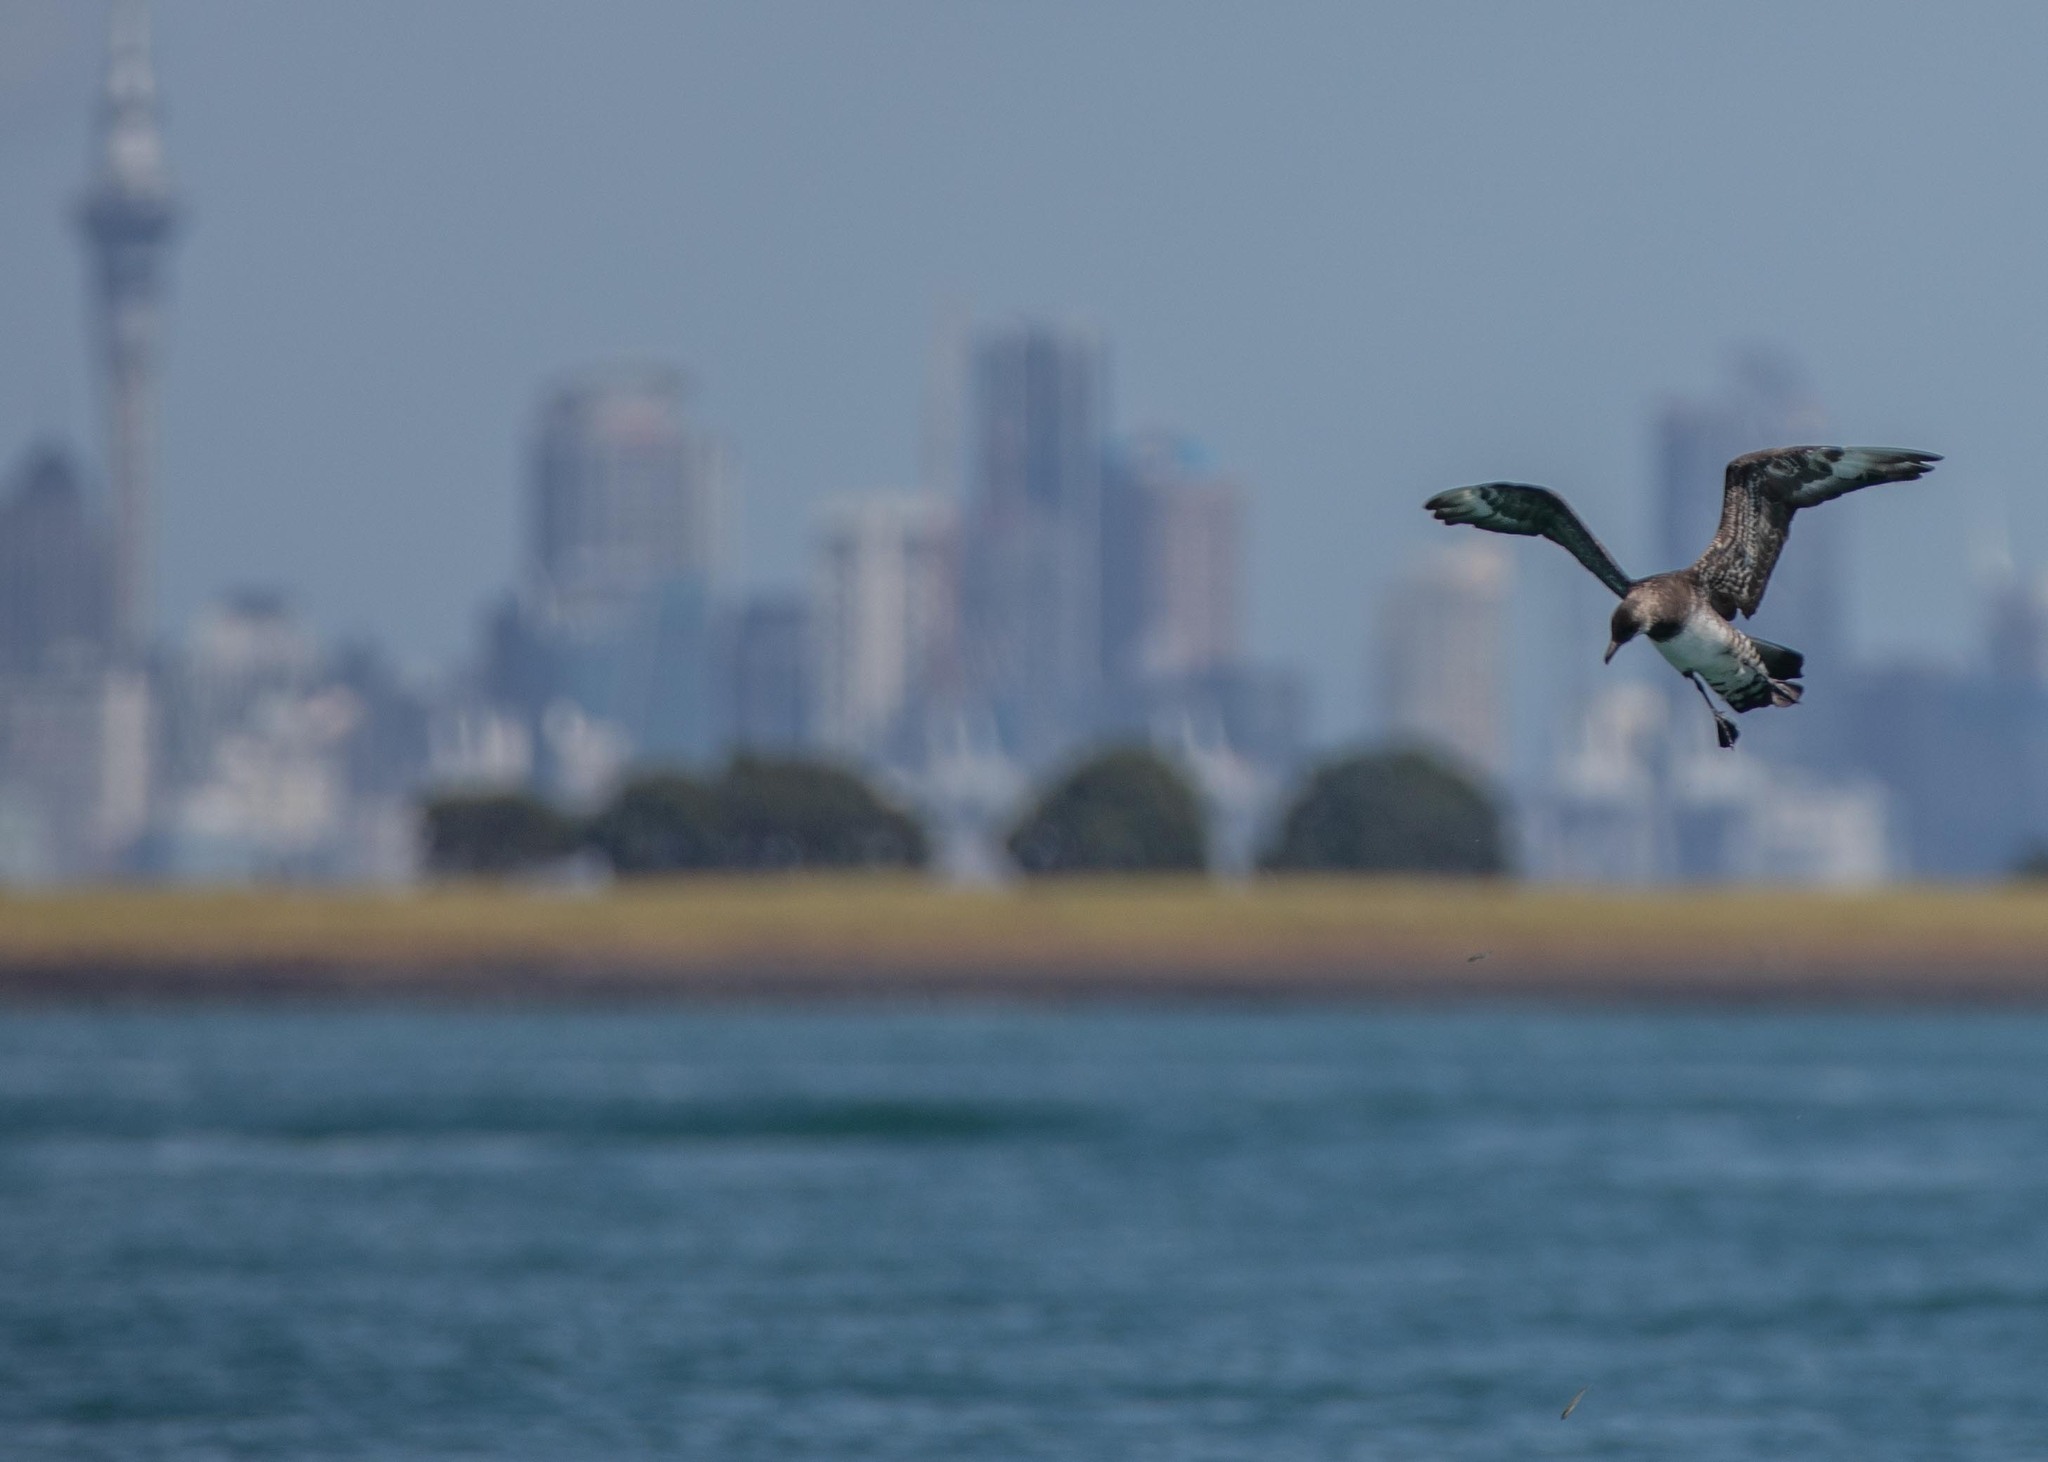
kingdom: Animalia
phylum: Chordata
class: Aves
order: Charadriiformes
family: Stercorariidae
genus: Stercorarius
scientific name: Stercorarius parasiticus
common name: Parasitic jaeger
